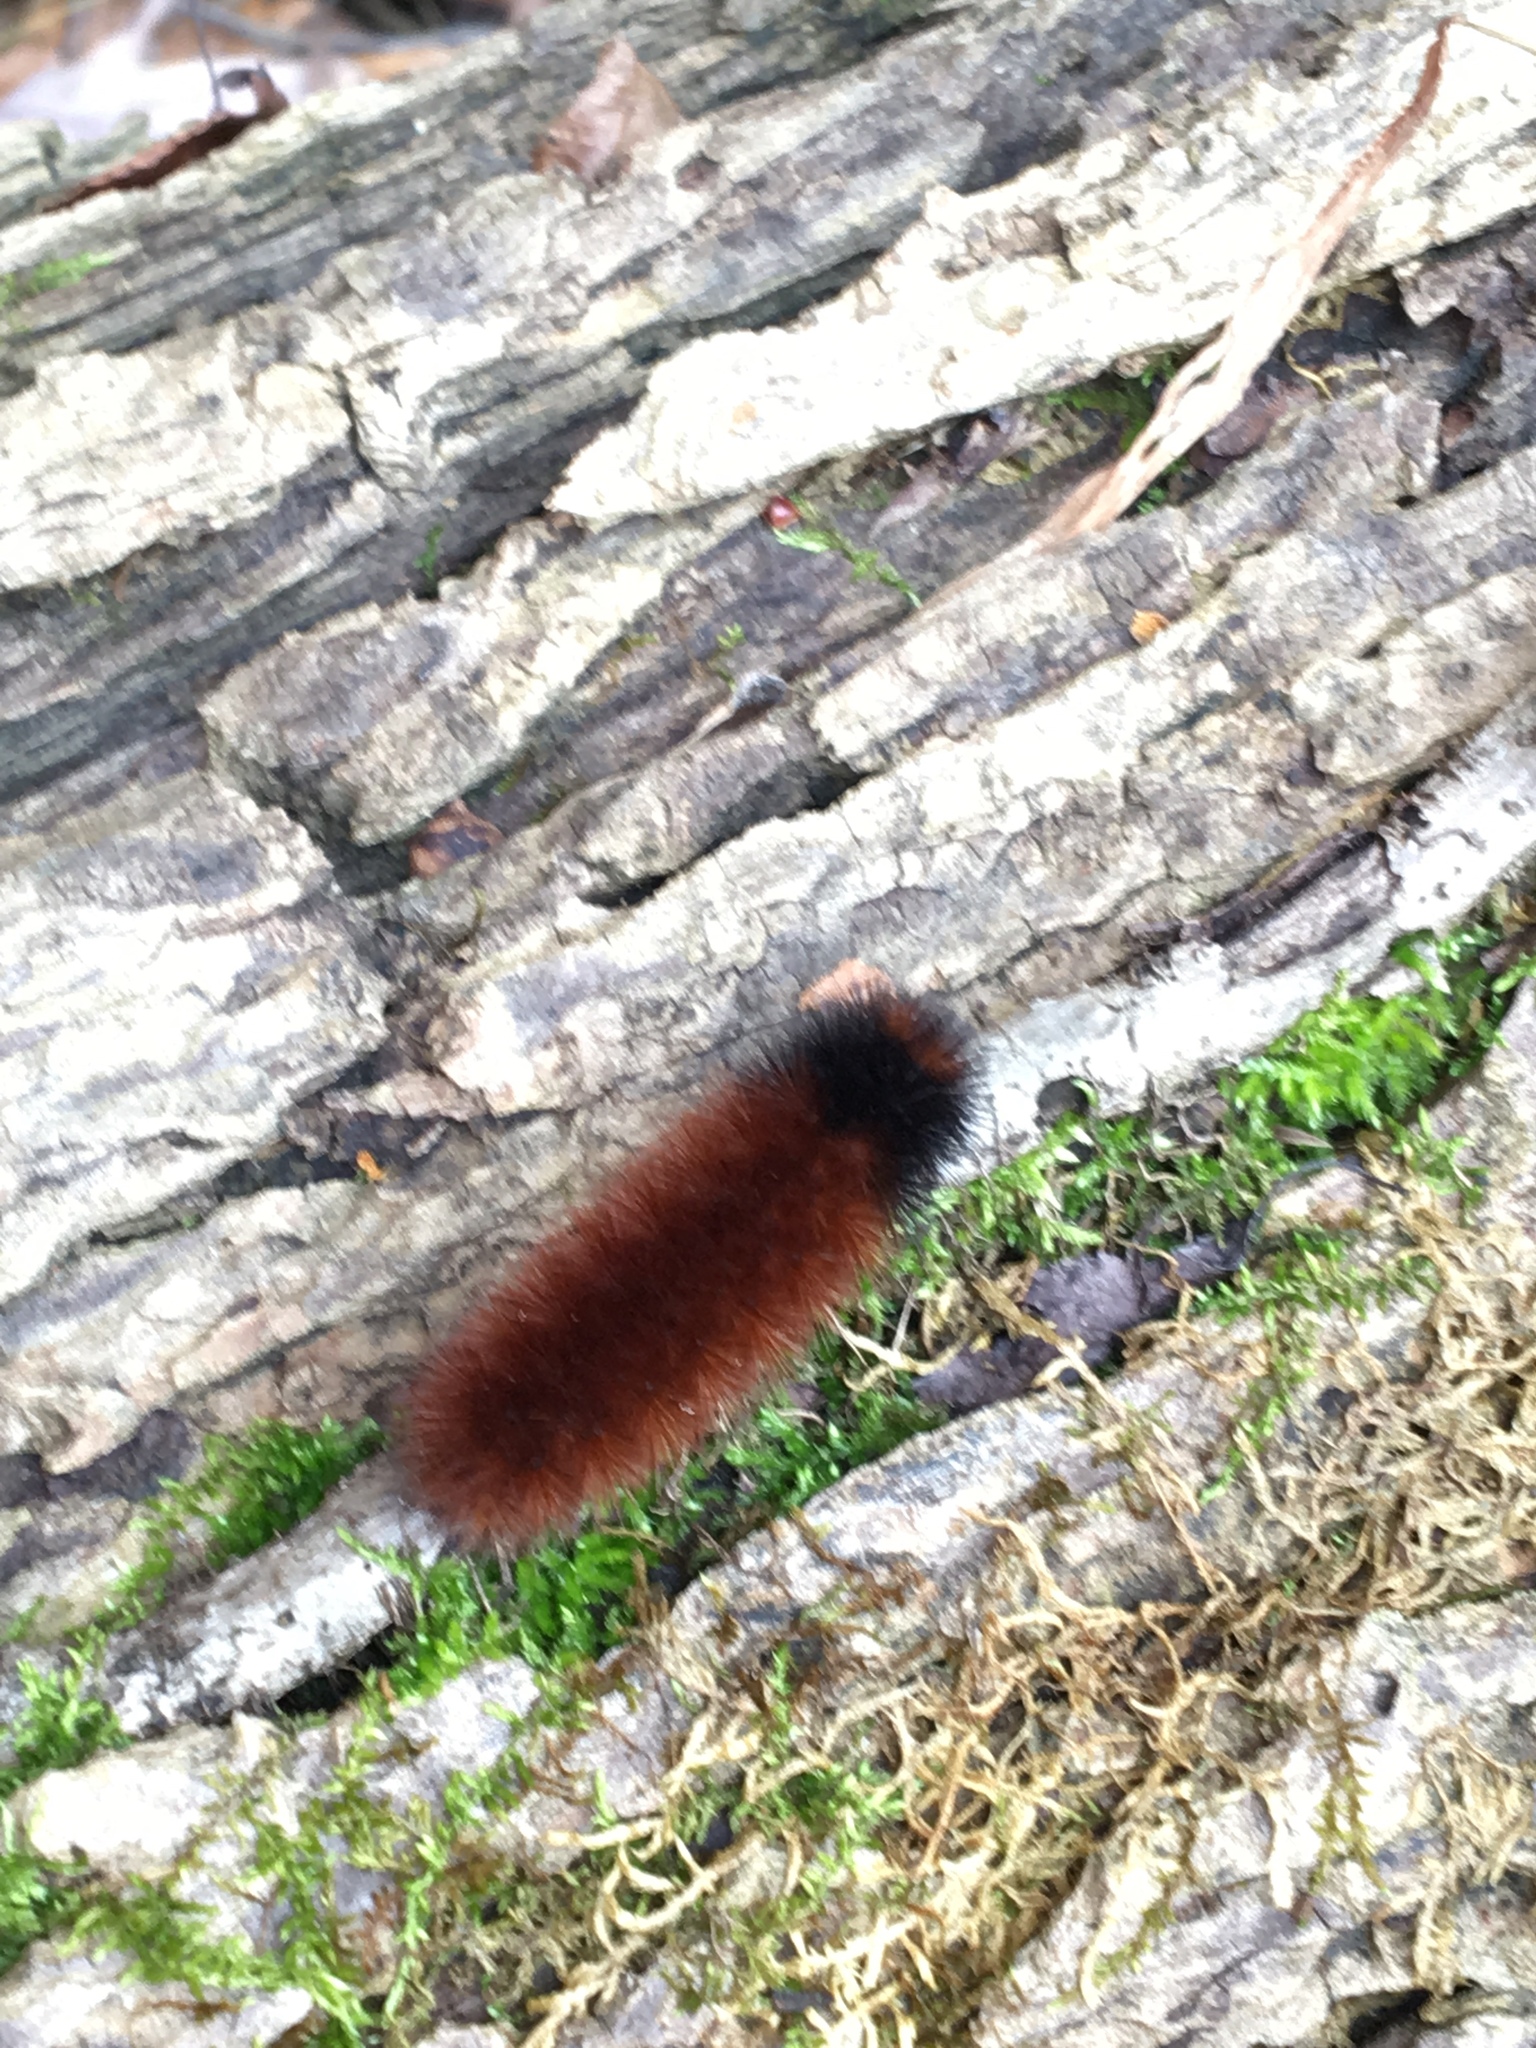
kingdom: Animalia
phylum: Arthropoda
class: Insecta
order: Lepidoptera
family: Erebidae
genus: Pyrrharctia
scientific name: Pyrrharctia isabella
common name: Isabella tiger moth
